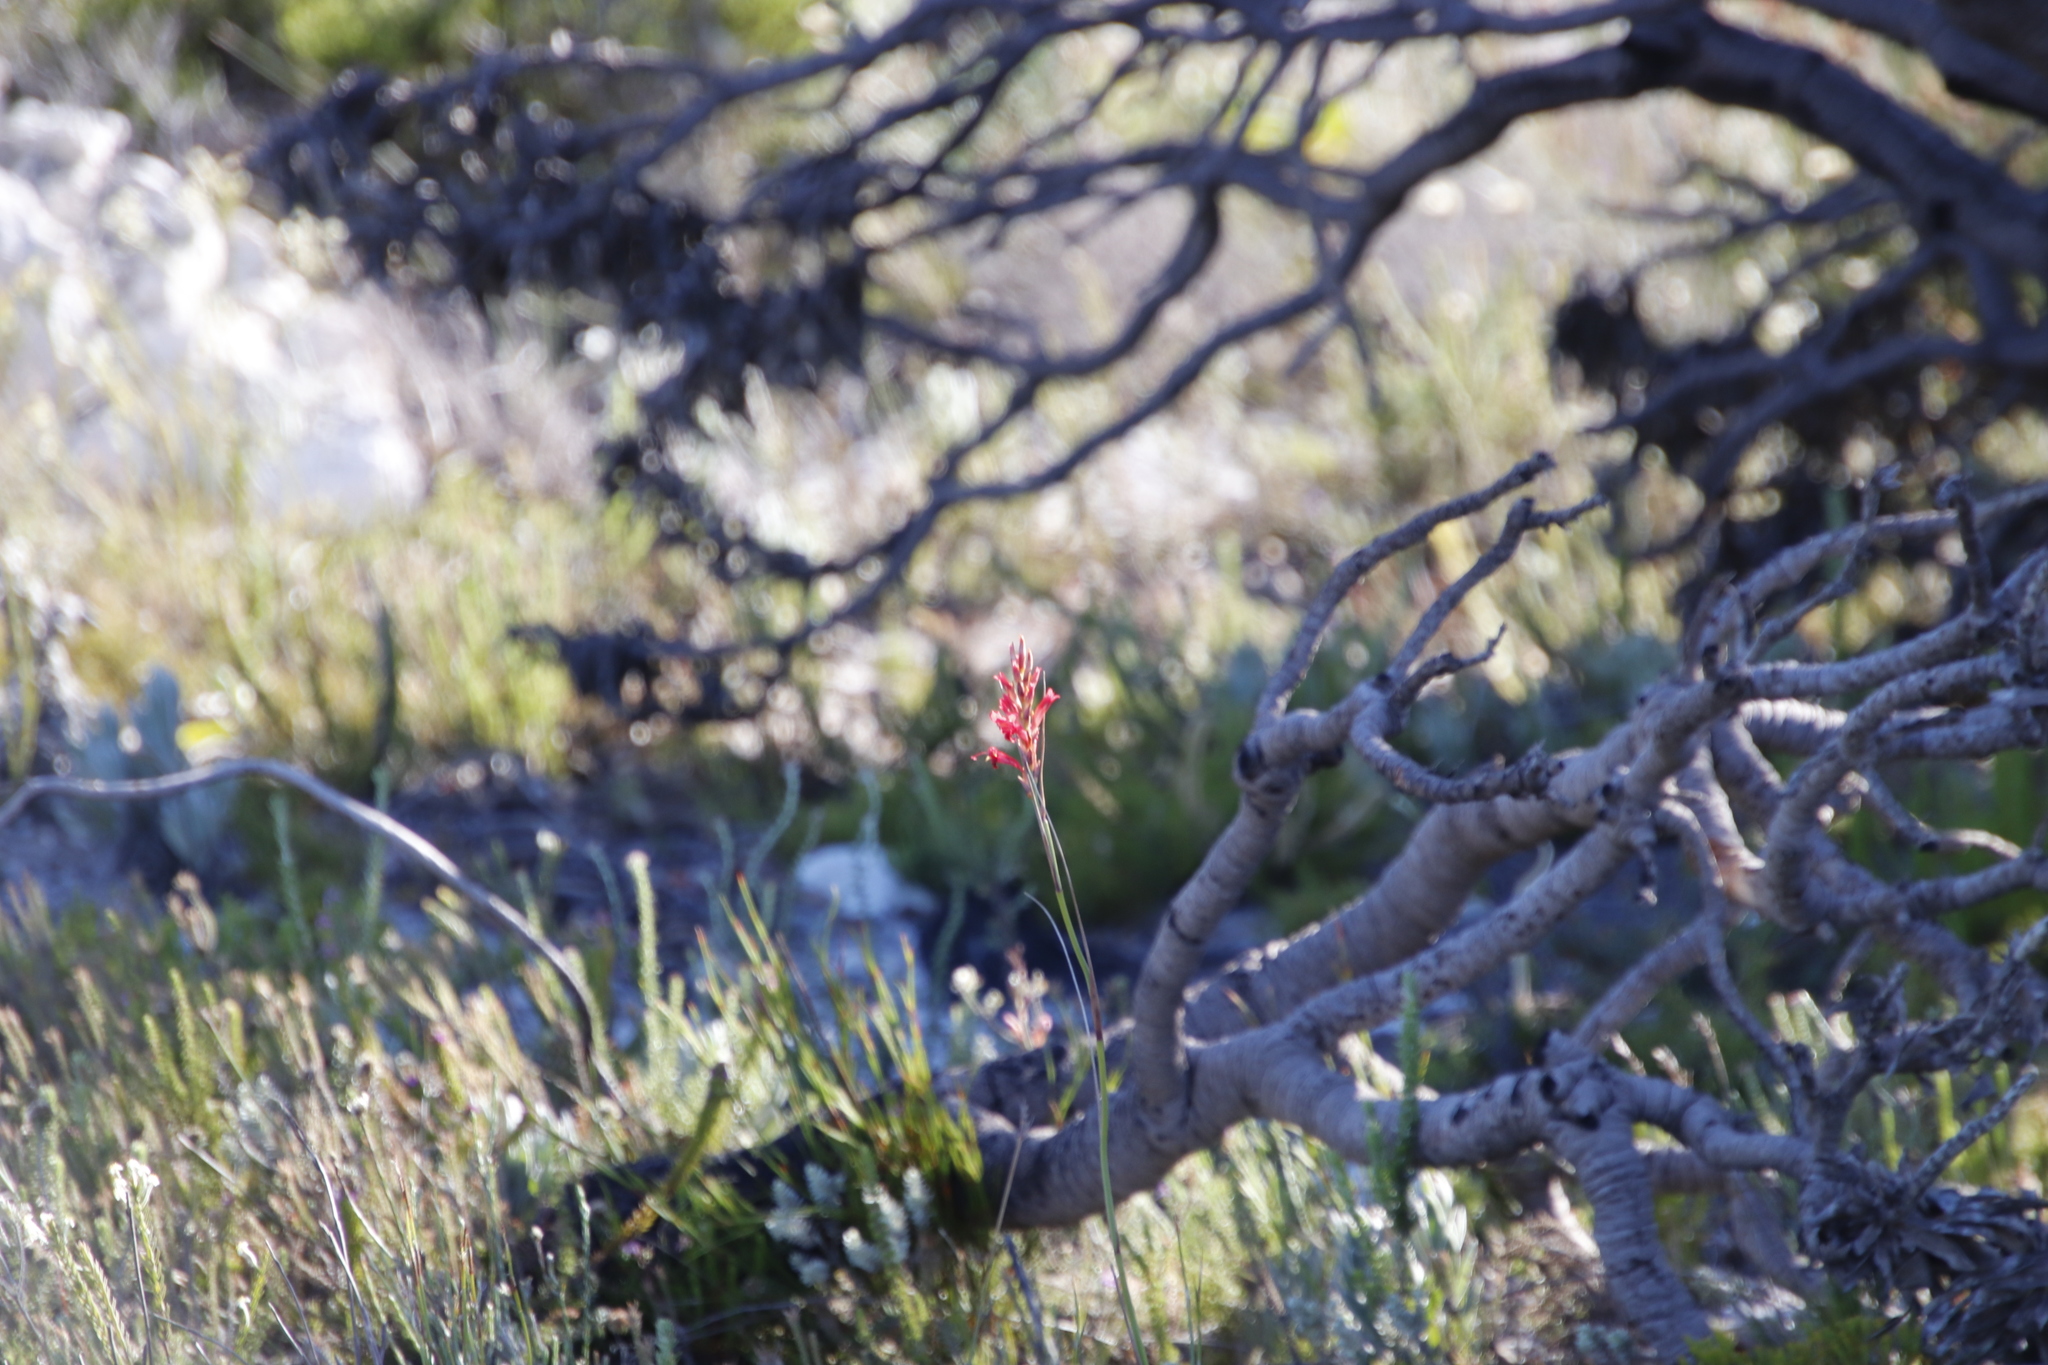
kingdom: Plantae
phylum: Tracheophyta
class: Liliopsida
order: Asparagales
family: Iridaceae
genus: Tritoniopsis
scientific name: Tritoniopsis triticea
